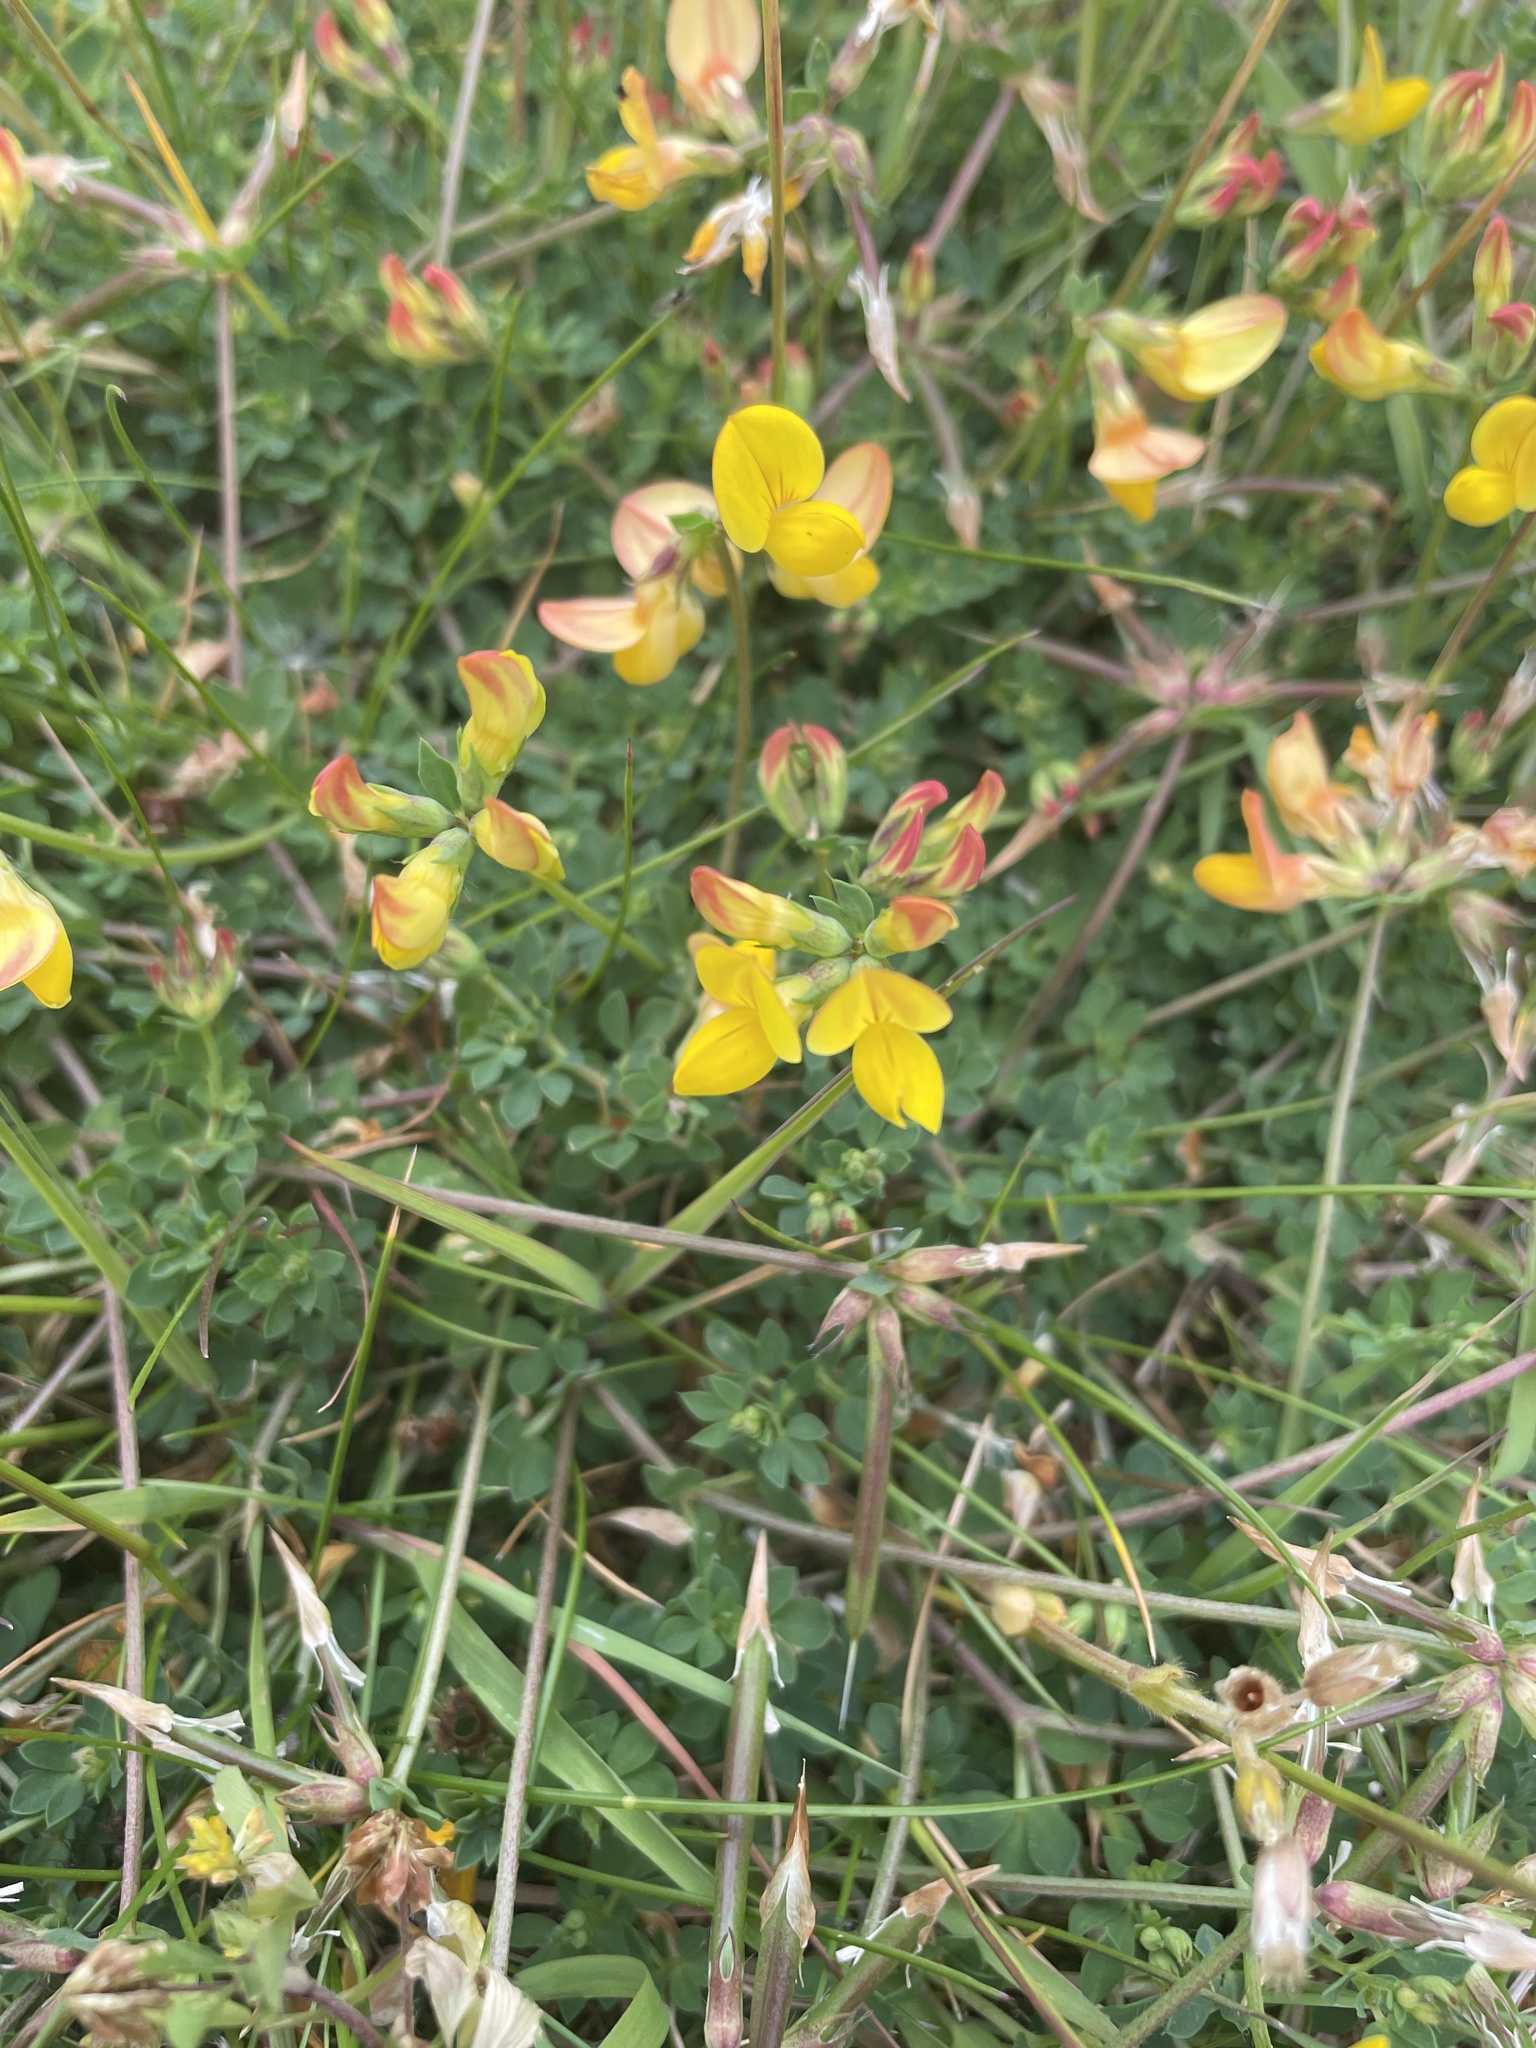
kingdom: Plantae
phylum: Tracheophyta
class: Magnoliopsida
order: Fabales
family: Fabaceae
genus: Lotus
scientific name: Lotus corniculatus
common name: Common bird's-foot-trefoil
